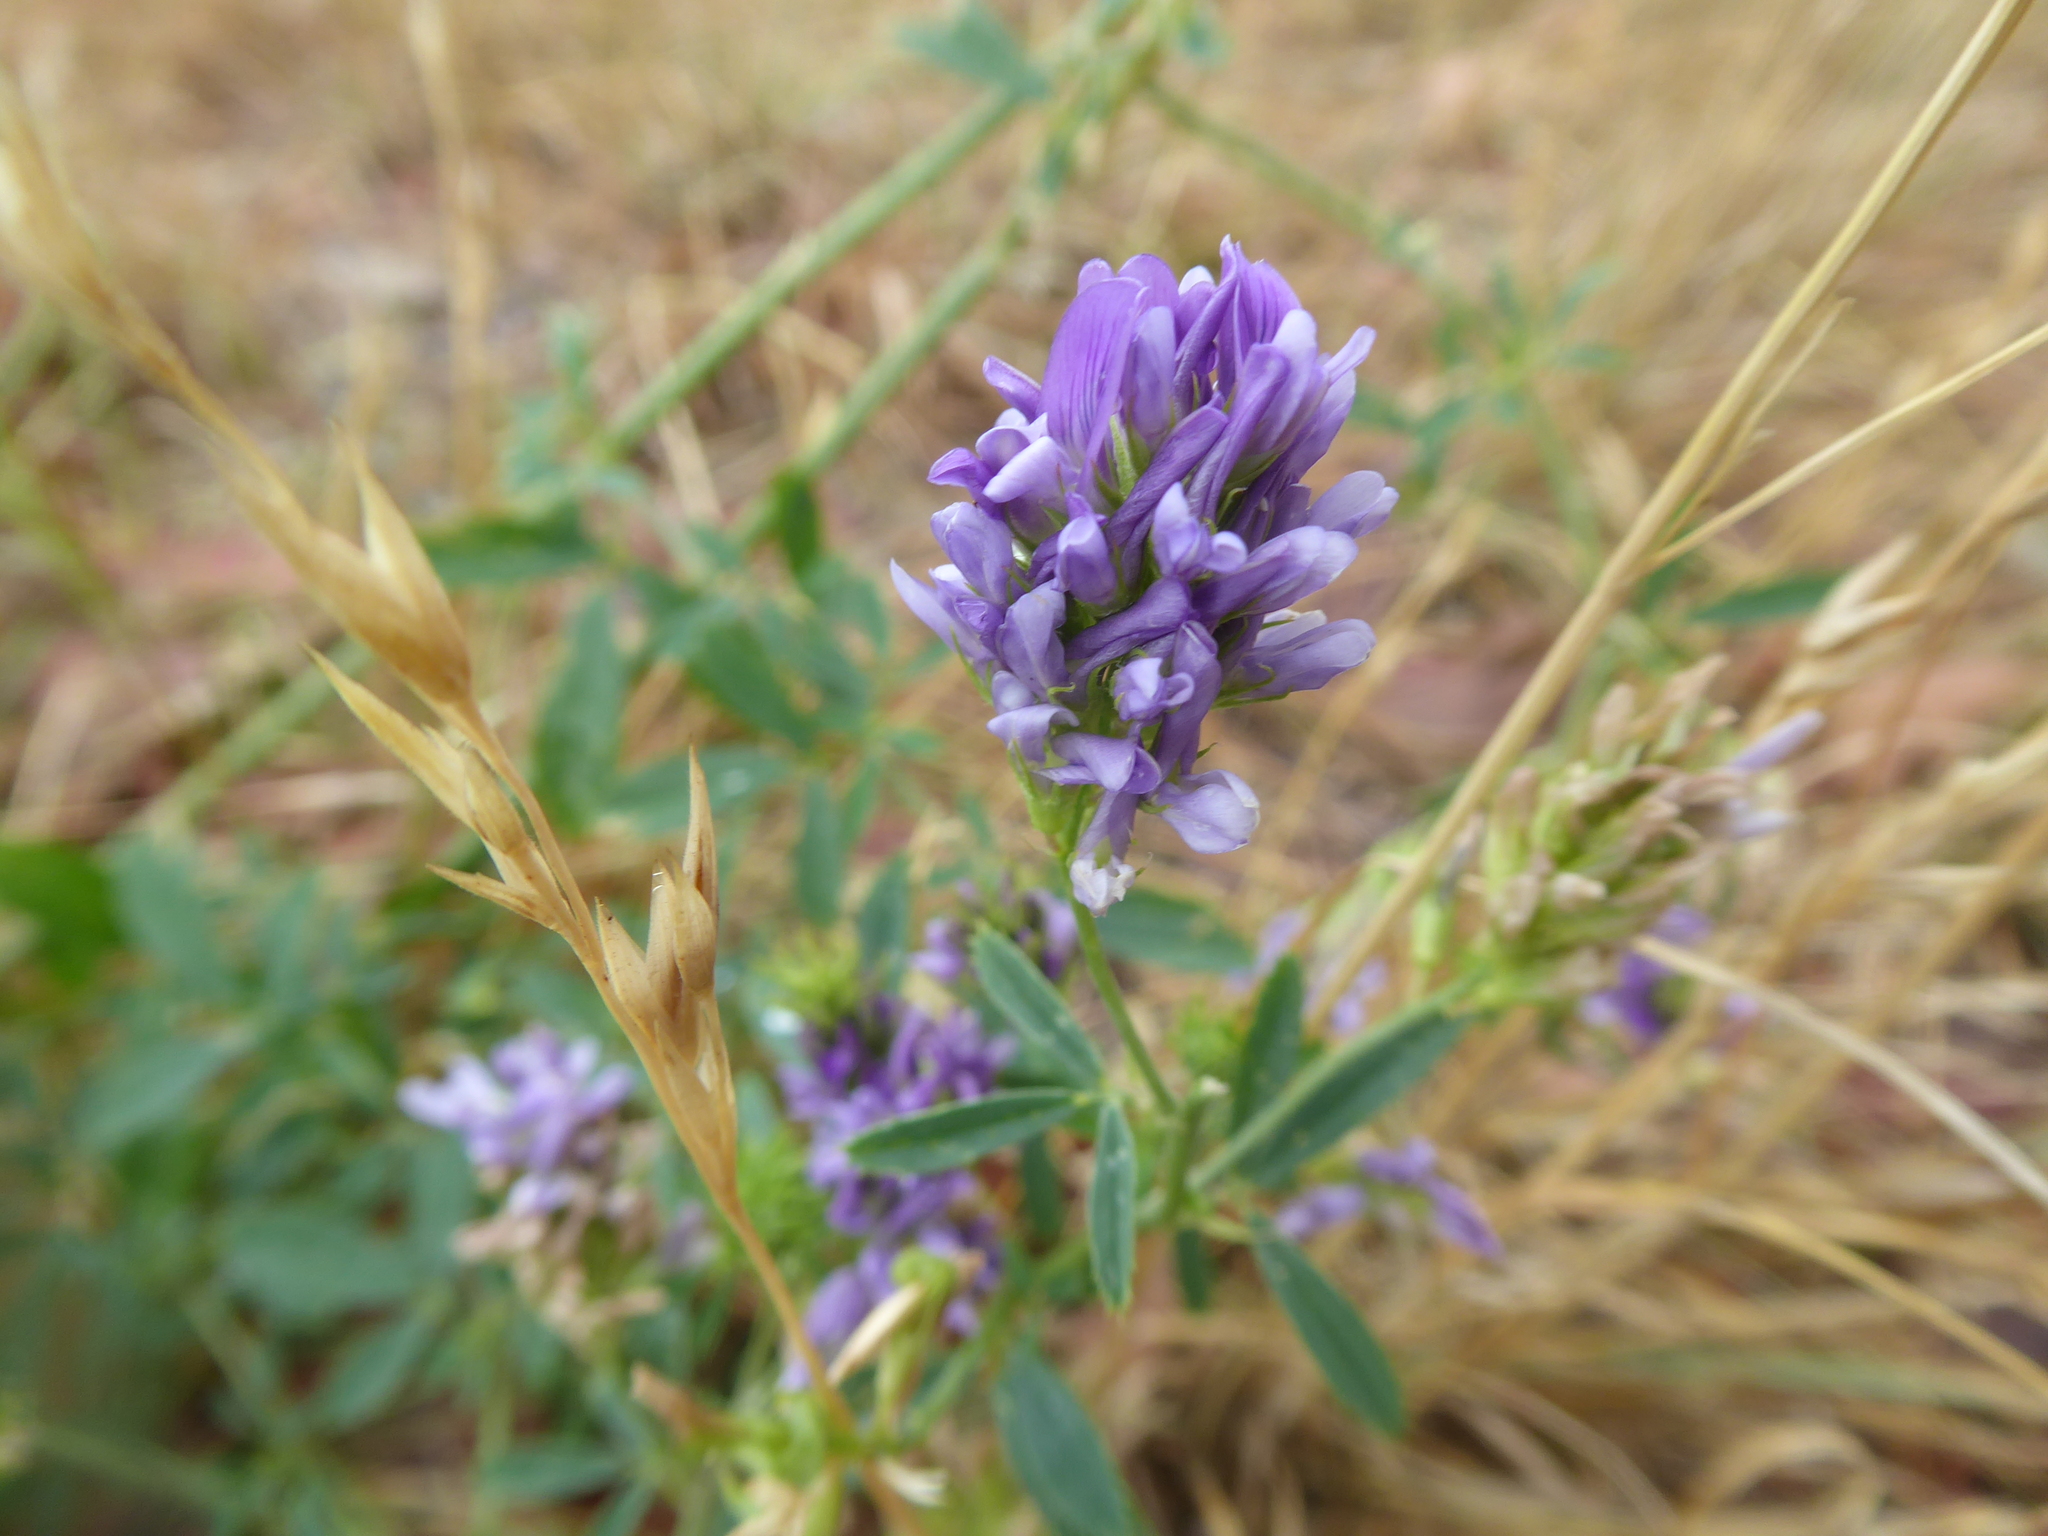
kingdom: Plantae
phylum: Tracheophyta
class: Magnoliopsida
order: Fabales
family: Fabaceae
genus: Medicago
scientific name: Medicago sativa
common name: Alfalfa
